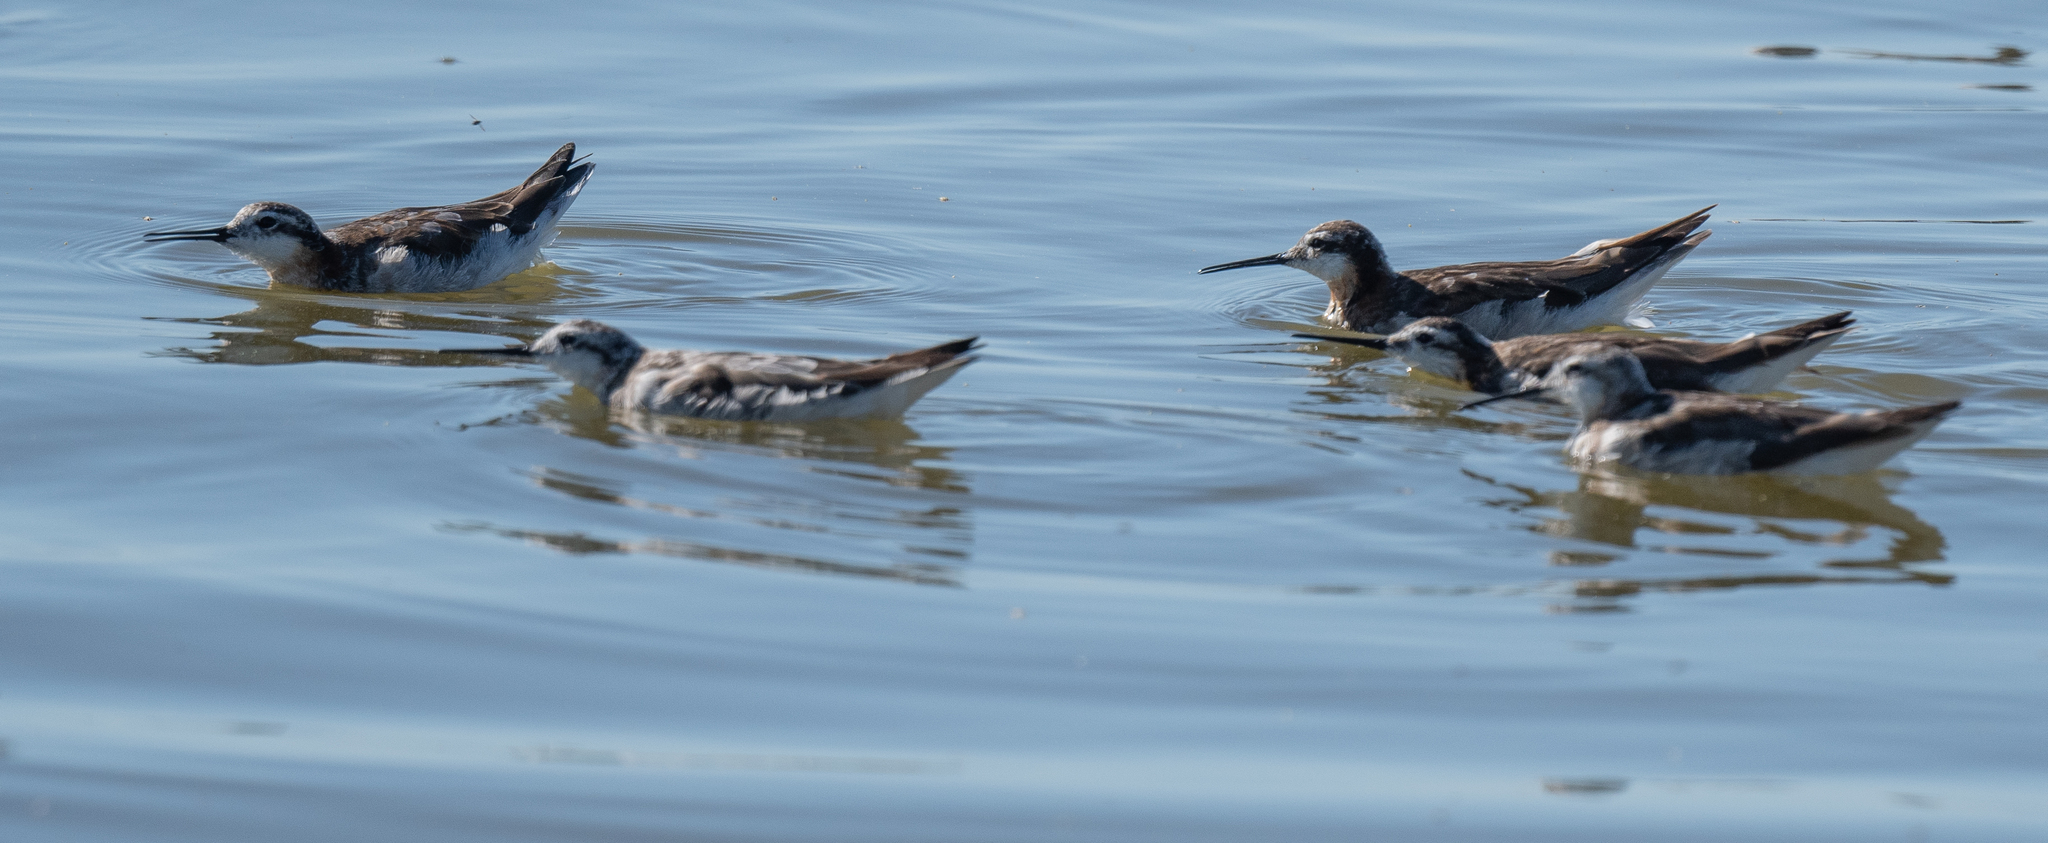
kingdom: Animalia
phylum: Chordata
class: Aves
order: Charadriiformes
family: Scolopacidae
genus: Phalaropus
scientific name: Phalaropus tricolor
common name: Wilson's phalarope
